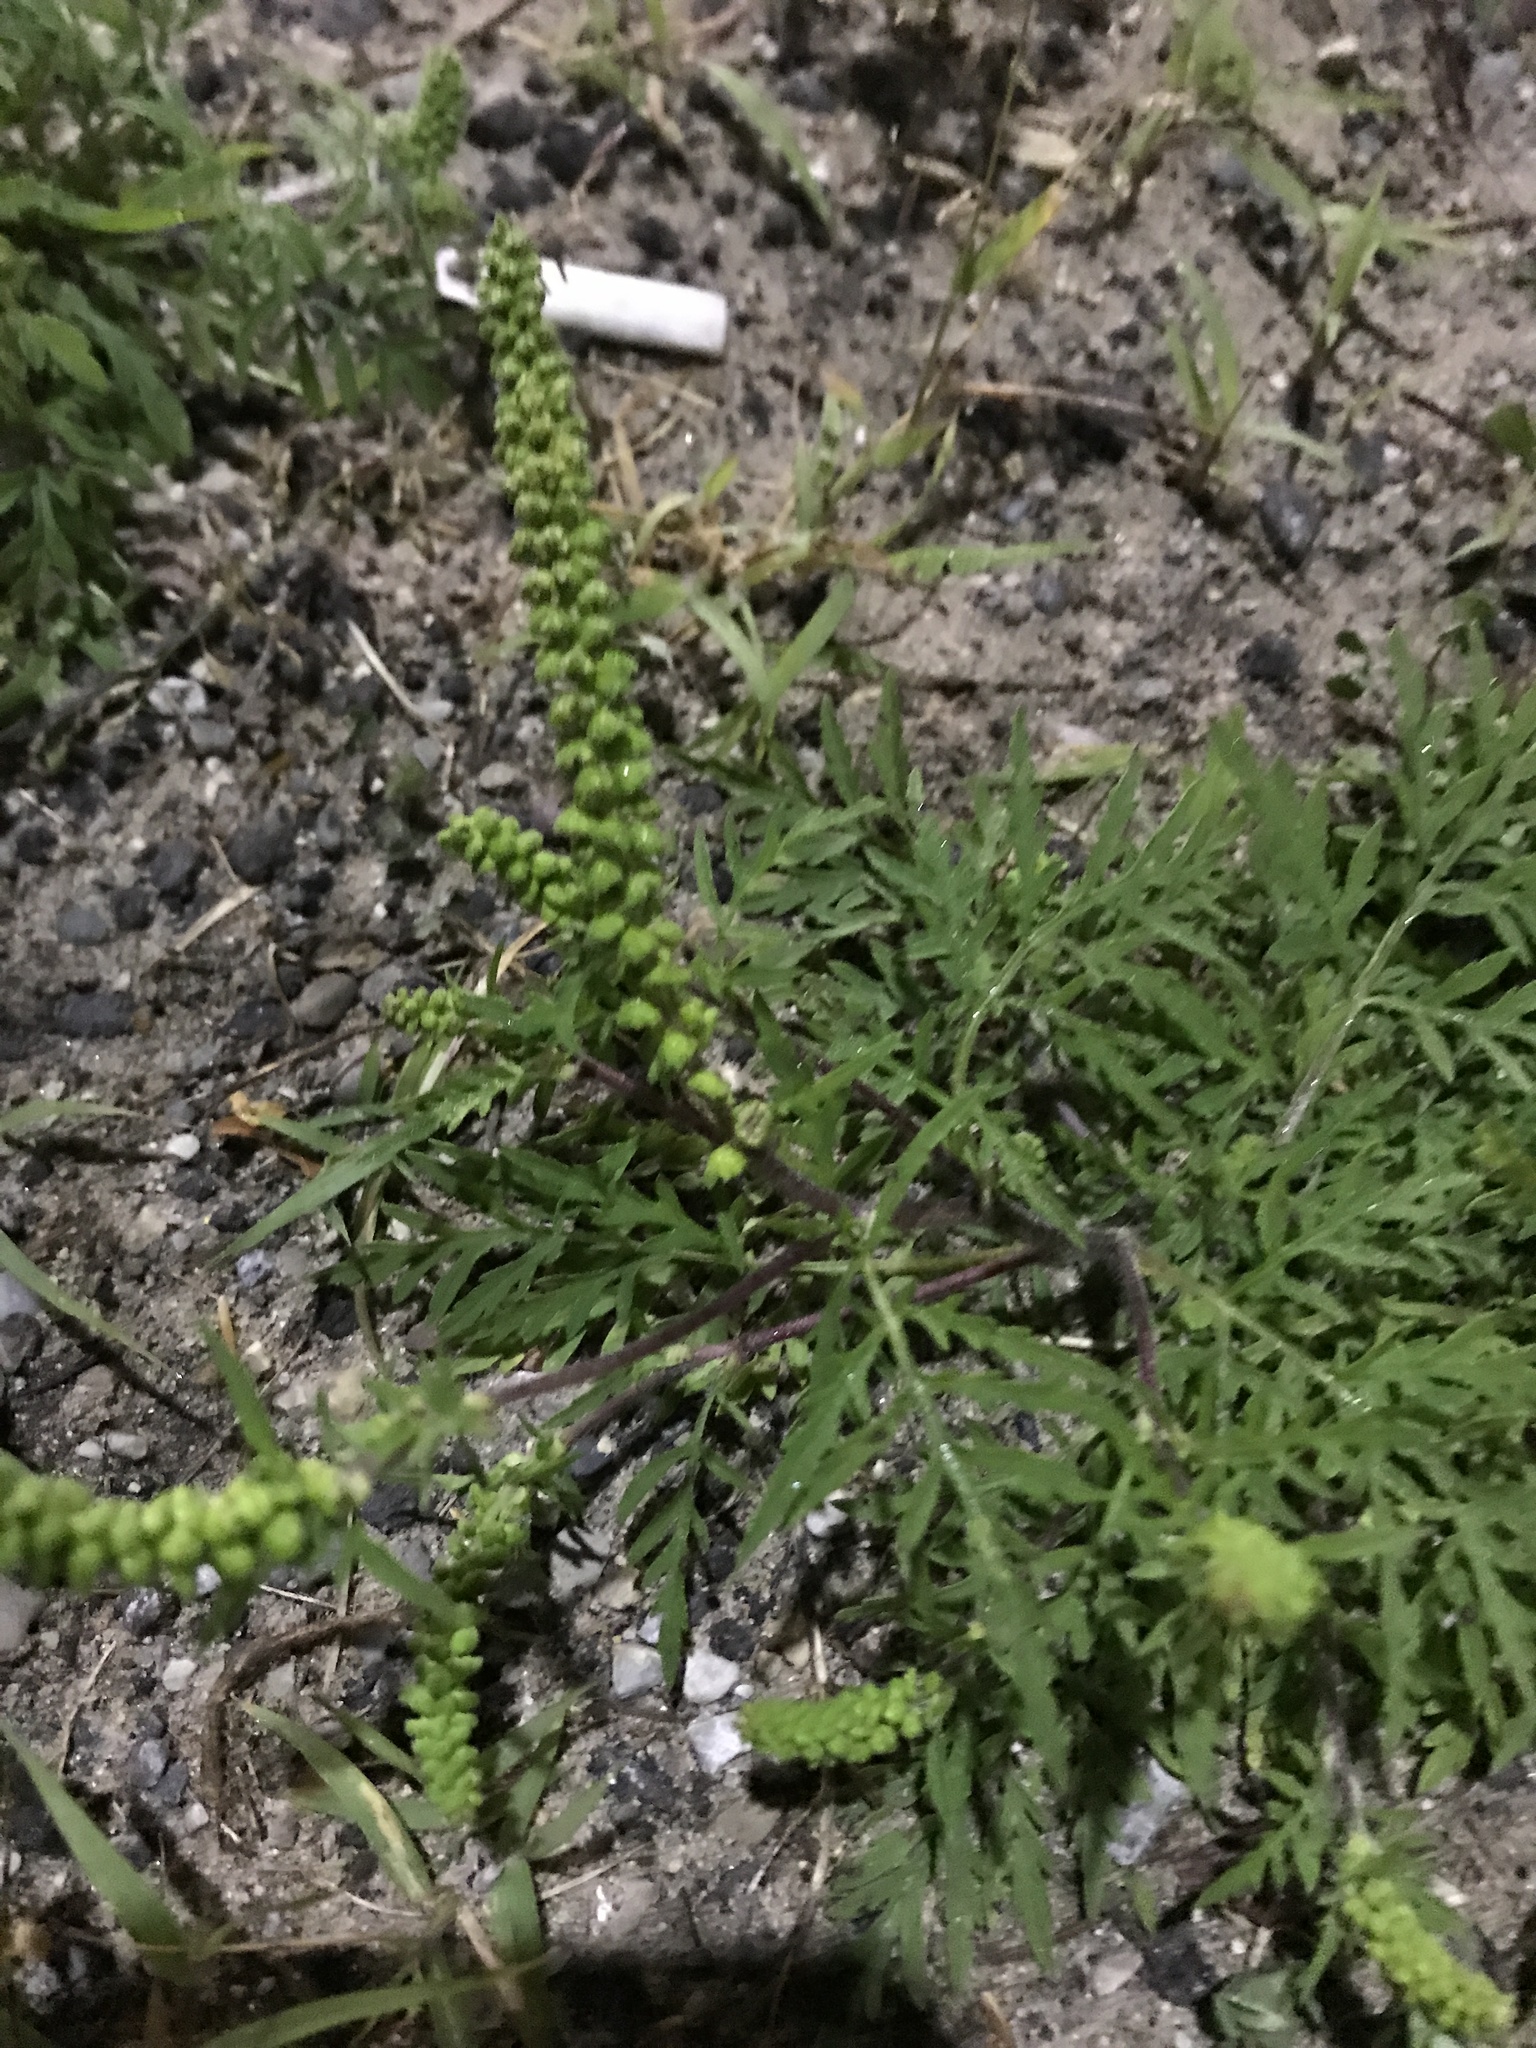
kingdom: Plantae
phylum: Tracheophyta
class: Magnoliopsida
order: Asterales
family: Asteraceae
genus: Ambrosia
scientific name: Ambrosia artemisiifolia
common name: Annual ragweed
